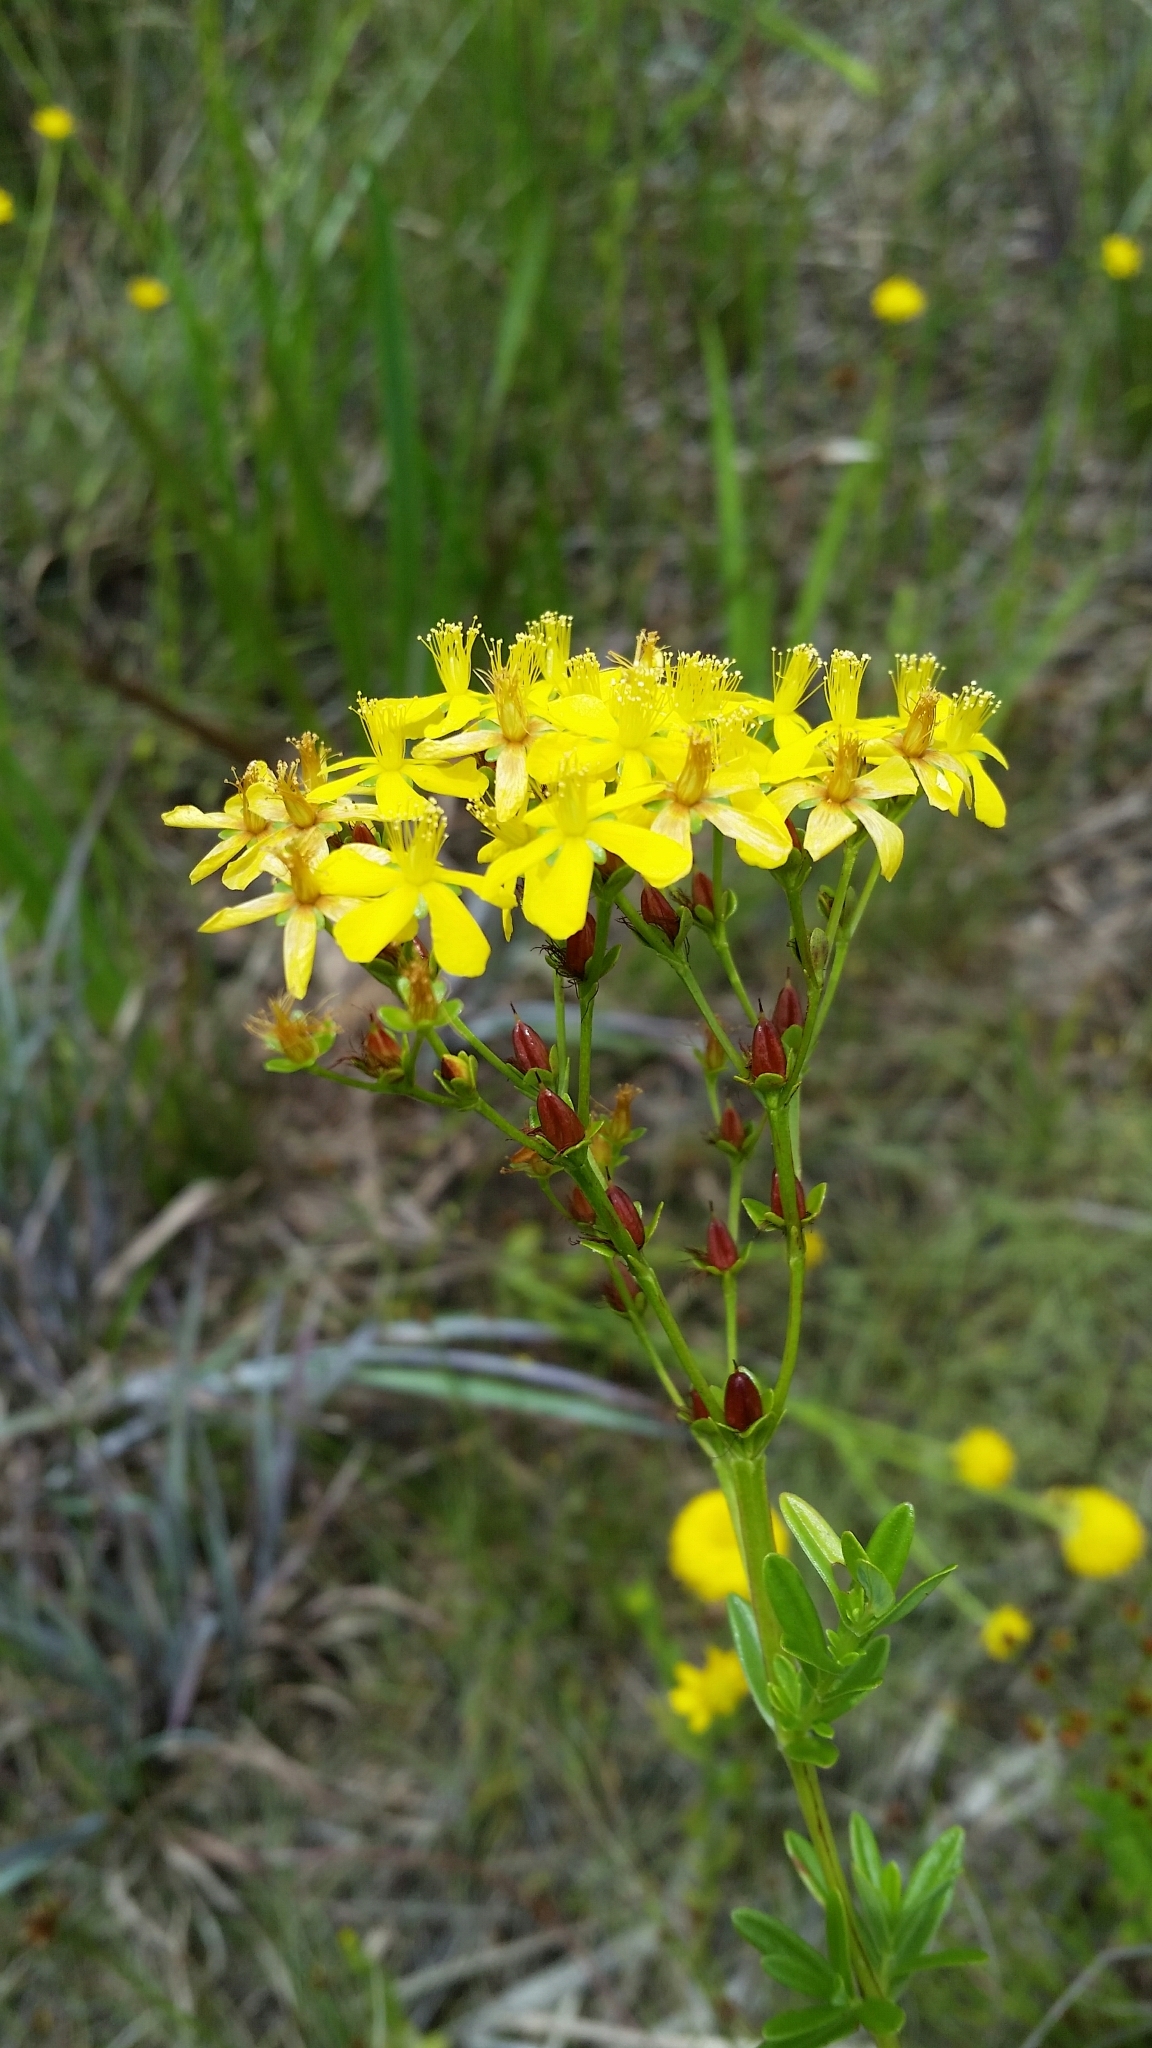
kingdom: Plantae
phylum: Tracheophyta
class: Magnoliopsida
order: Malpighiales
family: Hypericaceae
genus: Hypericum
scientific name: Hypericum cistifolium
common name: Round-pod st. john's-wort
